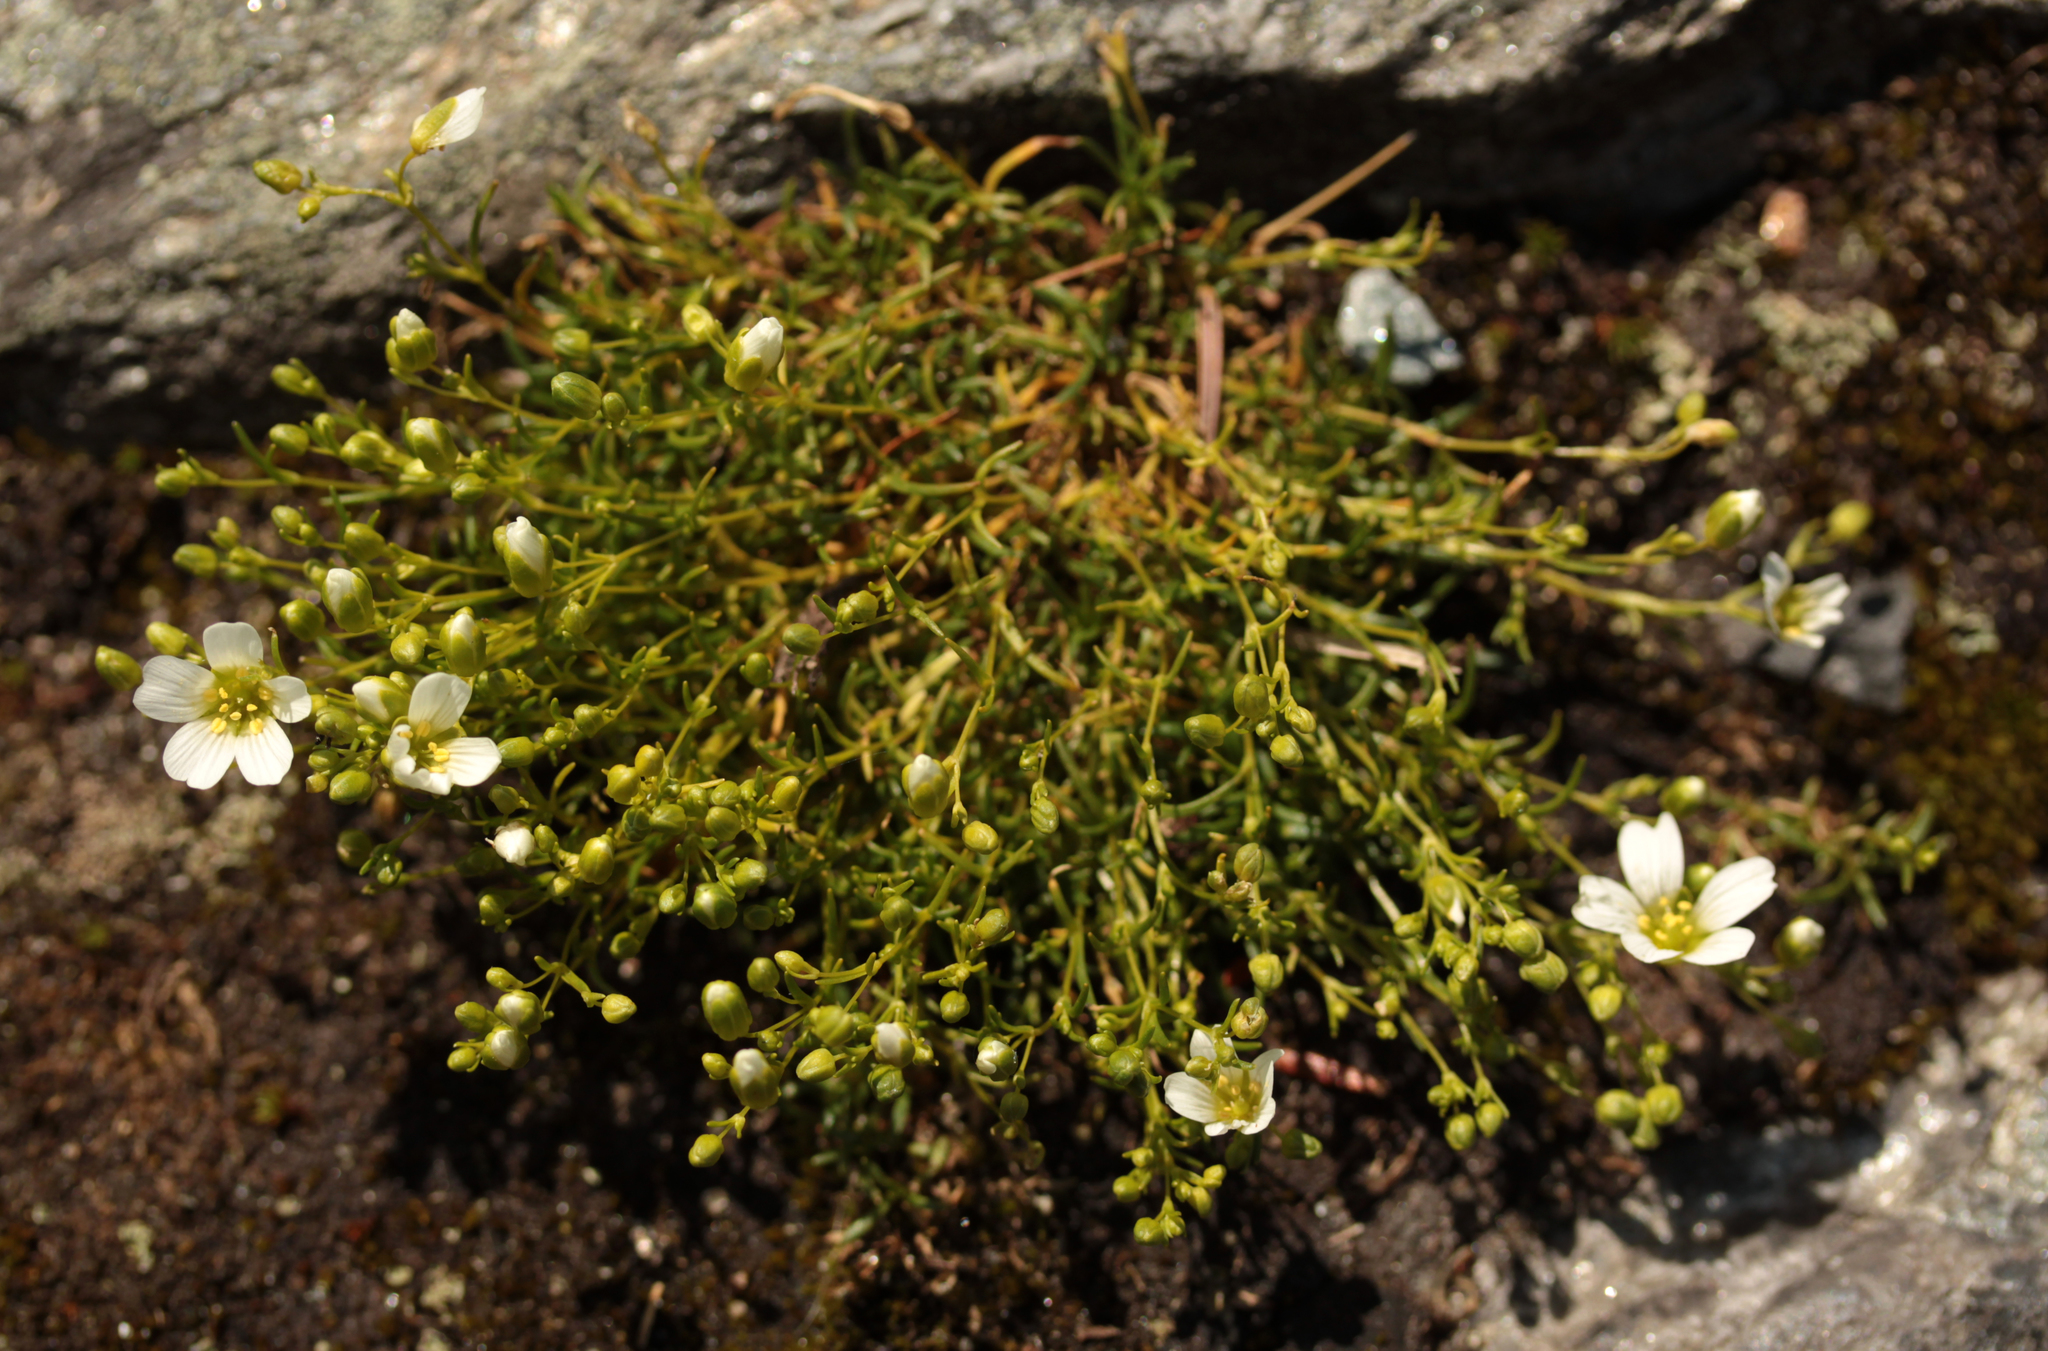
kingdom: Plantae
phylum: Tracheophyta
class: Magnoliopsida
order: Caryophyllales
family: Caryophyllaceae
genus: Geocarpon
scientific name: Geocarpon groenlandicum
